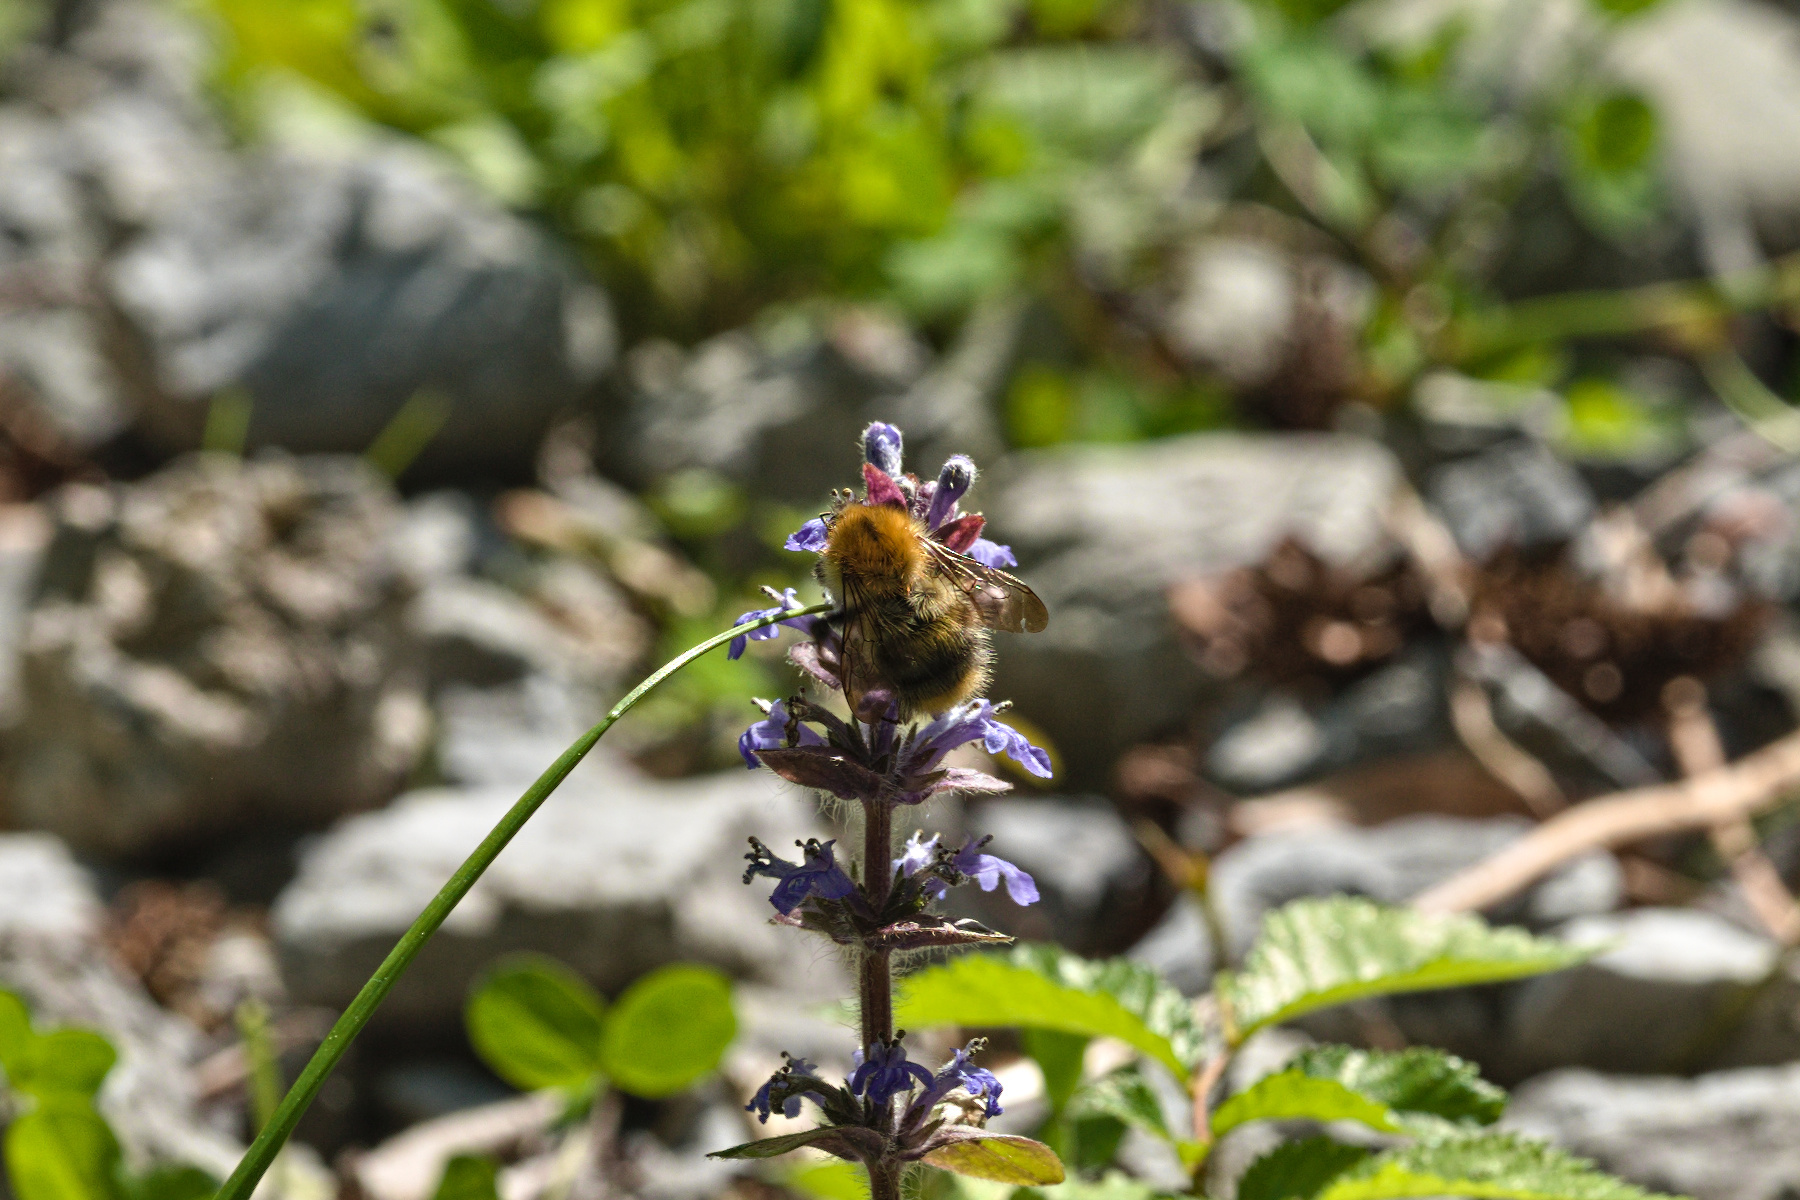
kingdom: Animalia
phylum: Arthropoda
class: Insecta
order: Hymenoptera
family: Apidae
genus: Bombus
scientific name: Bombus pascuorum
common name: Common carder bee
